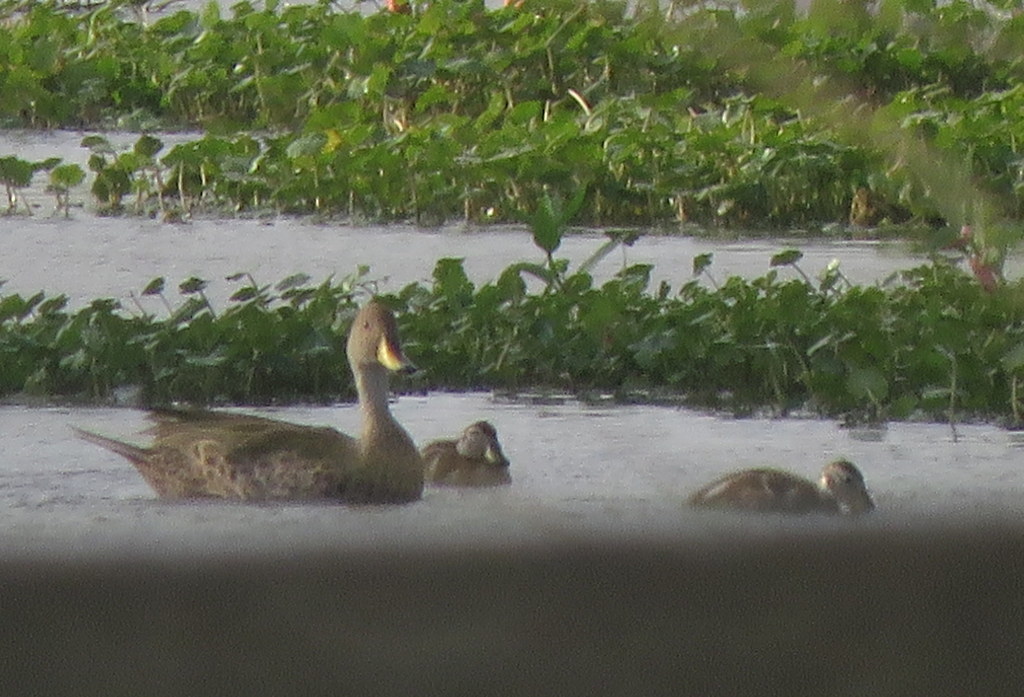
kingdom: Animalia
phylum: Chordata
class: Aves
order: Anseriformes
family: Anatidae
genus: Anas
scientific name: Anas georgica
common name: Yellow-billed pintail
